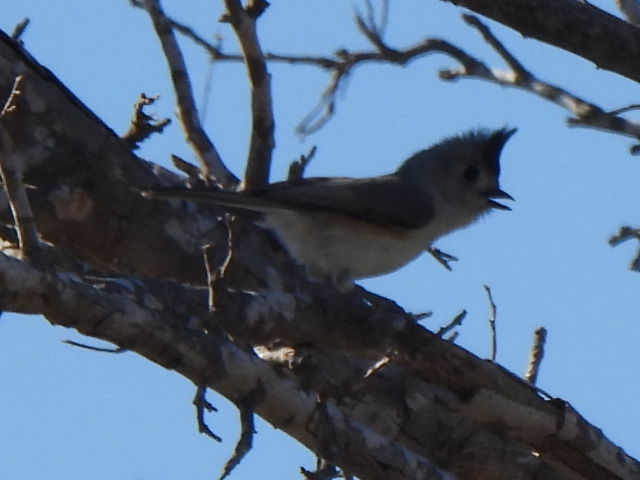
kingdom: Animalia
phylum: Chordata
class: Aves
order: Passeriformes
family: Paridae
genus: Baeolophus
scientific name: Baeolophus atricristatus
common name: Black-crested titmouse
